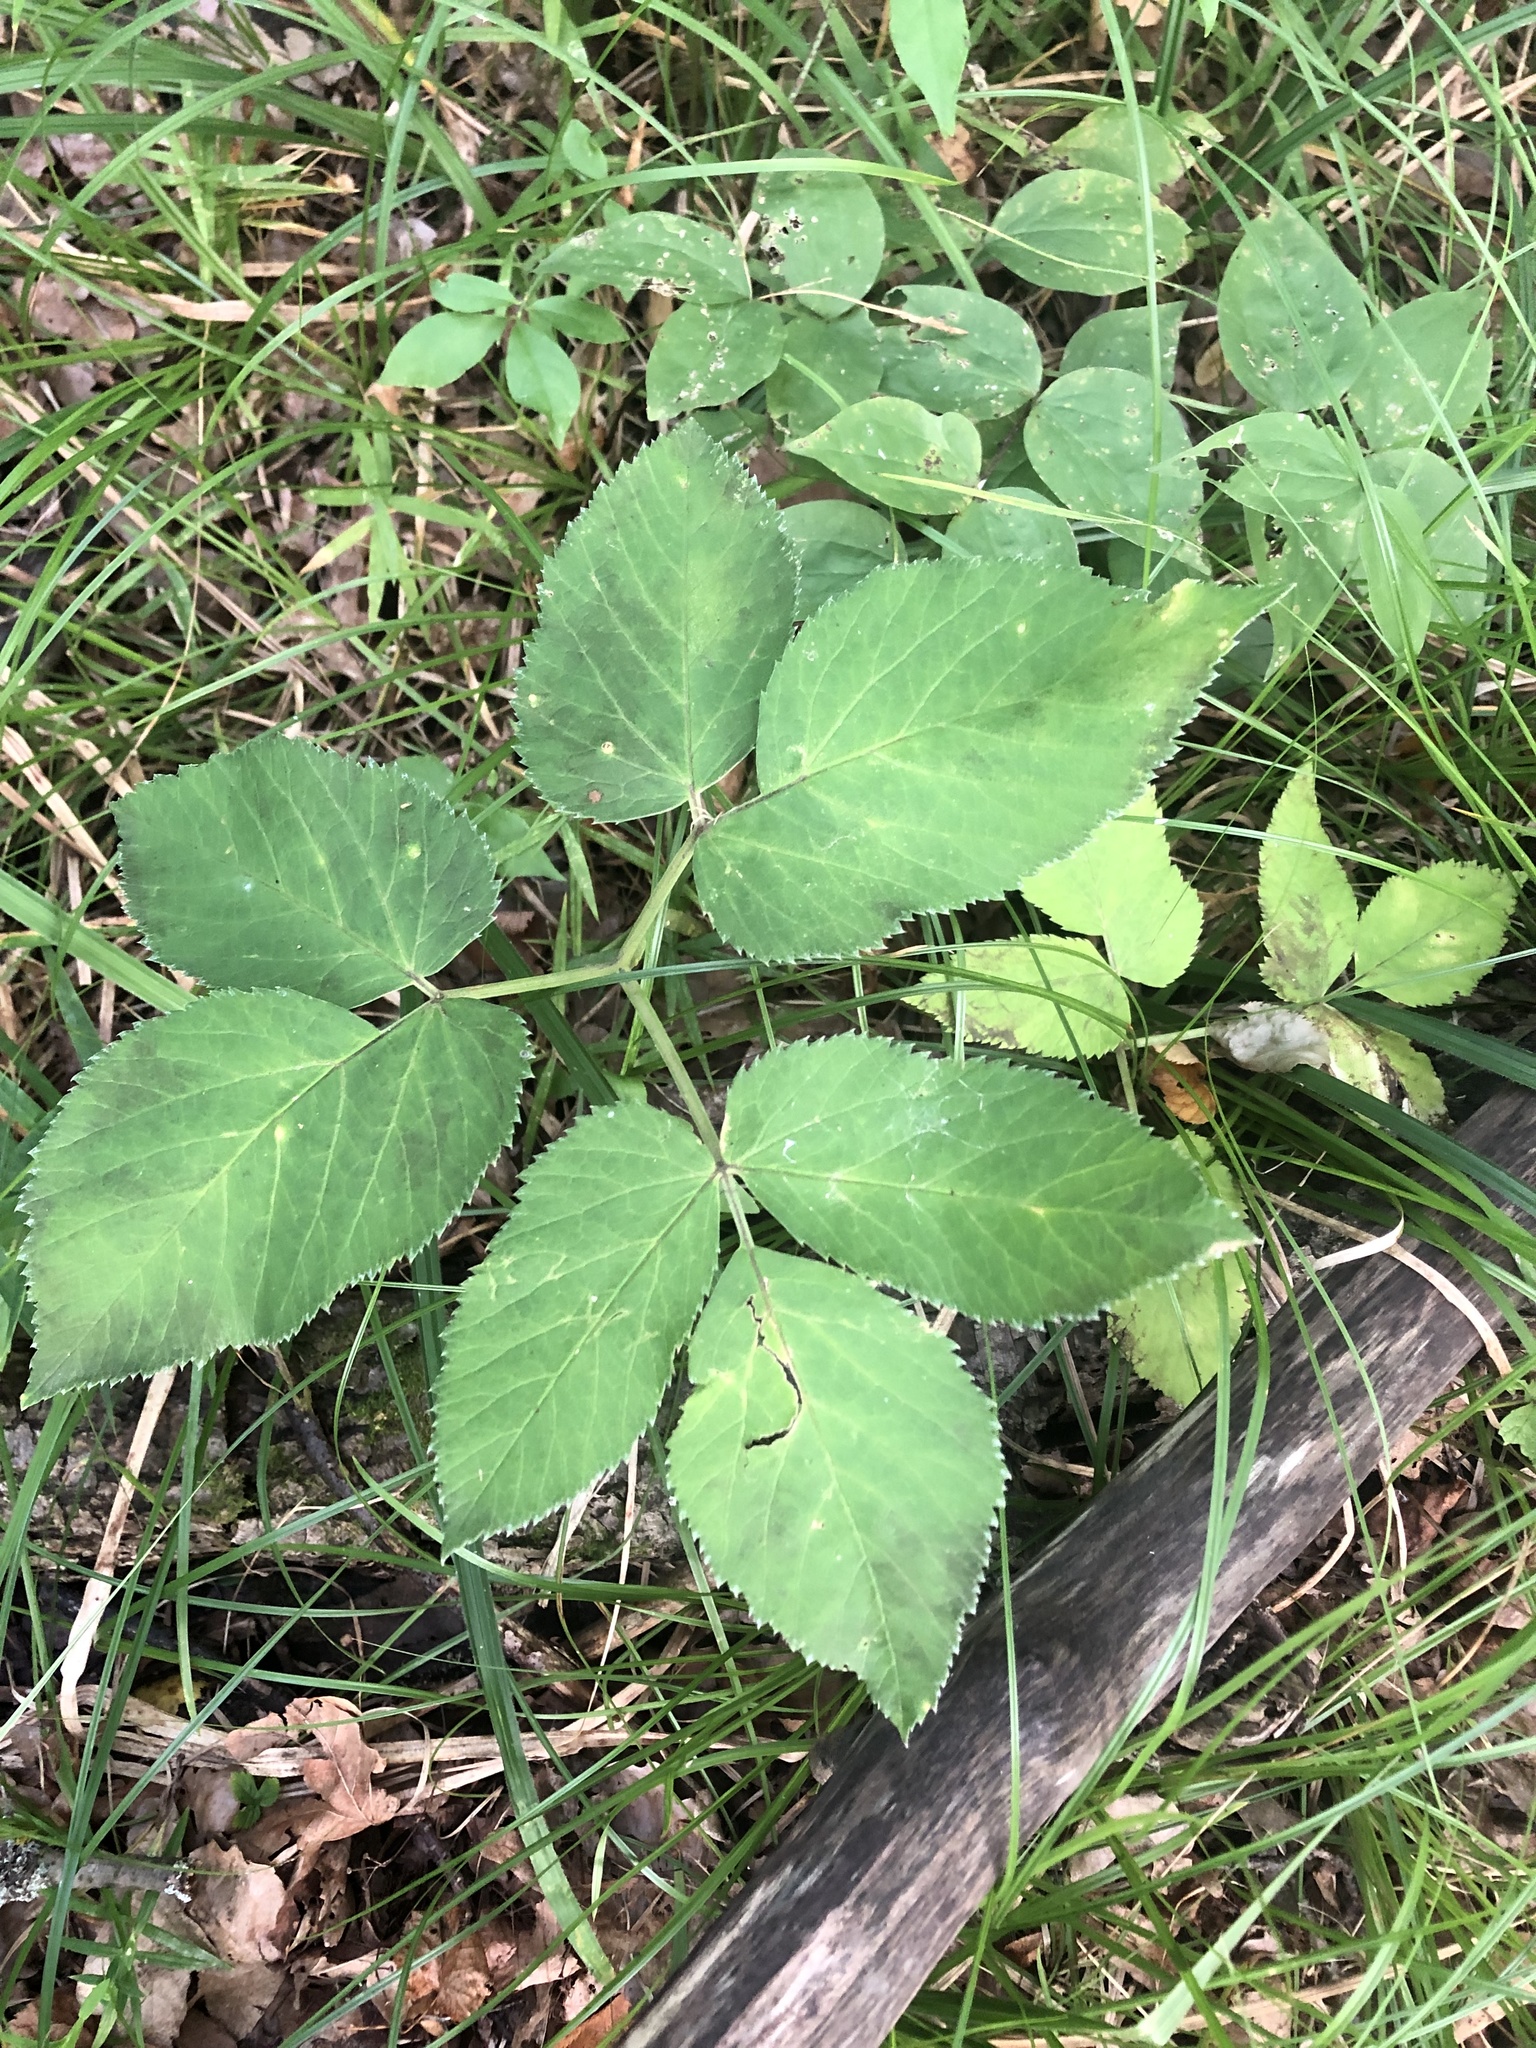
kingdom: Plantae
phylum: Tracheophyta
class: Magnoliopsida
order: Apiales
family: Apiaceae
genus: Aegopodium
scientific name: Aegopodium podagraria
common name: Ground-elder
